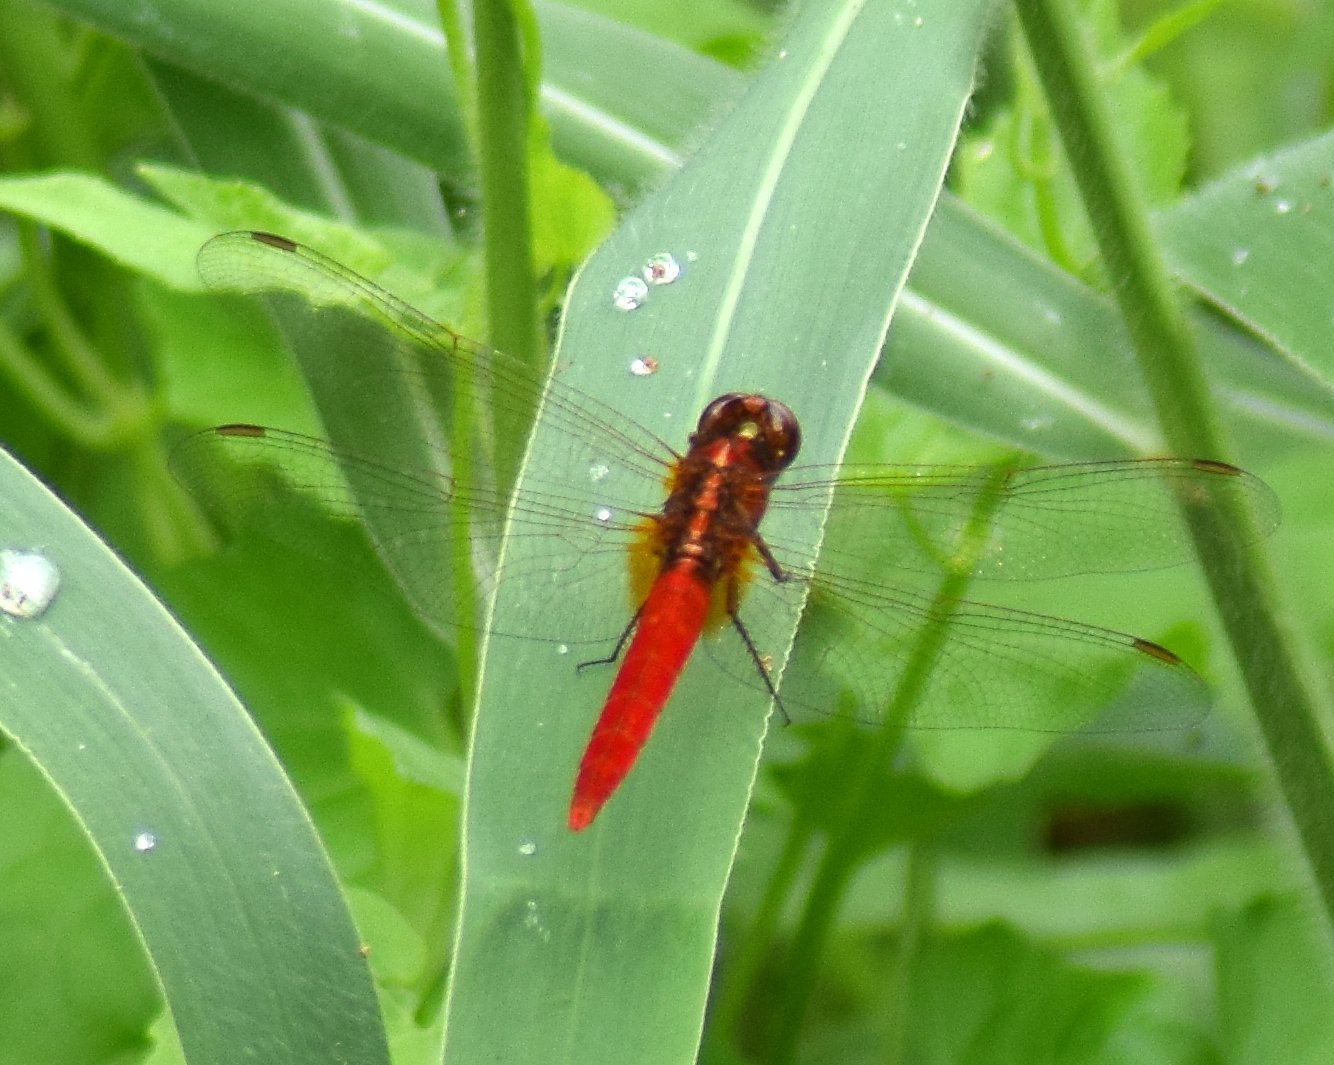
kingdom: Animalia
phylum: Arthropoda
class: Insecta
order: Odonata
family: Libellulidae
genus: Rhodothemis
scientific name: Rhodothemis rufa
